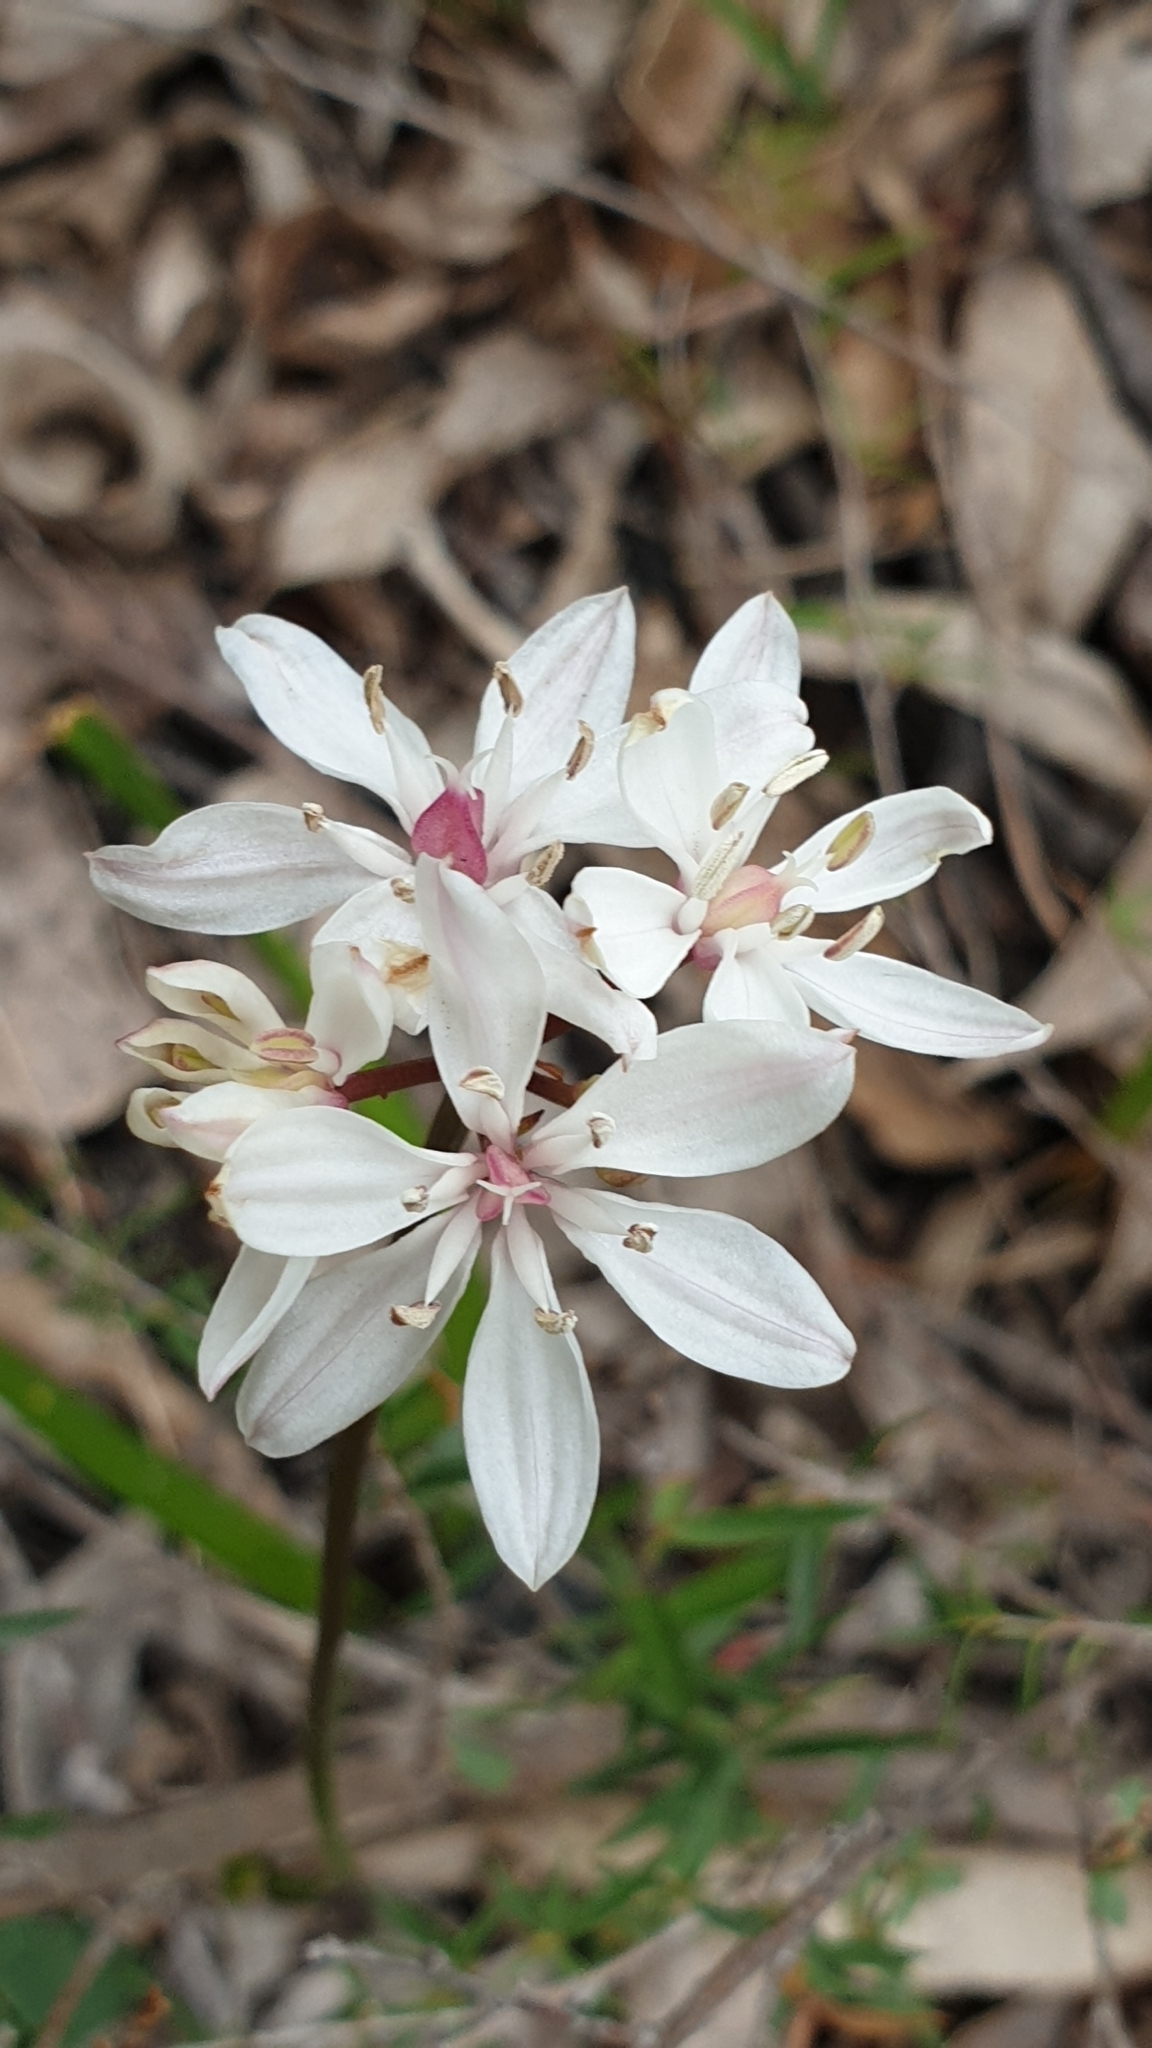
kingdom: Plantae
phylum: Tracheophyta
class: Liliopsida
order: Liliales
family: Colchicaceae
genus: Burchardia
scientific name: Burchardia umbellata
